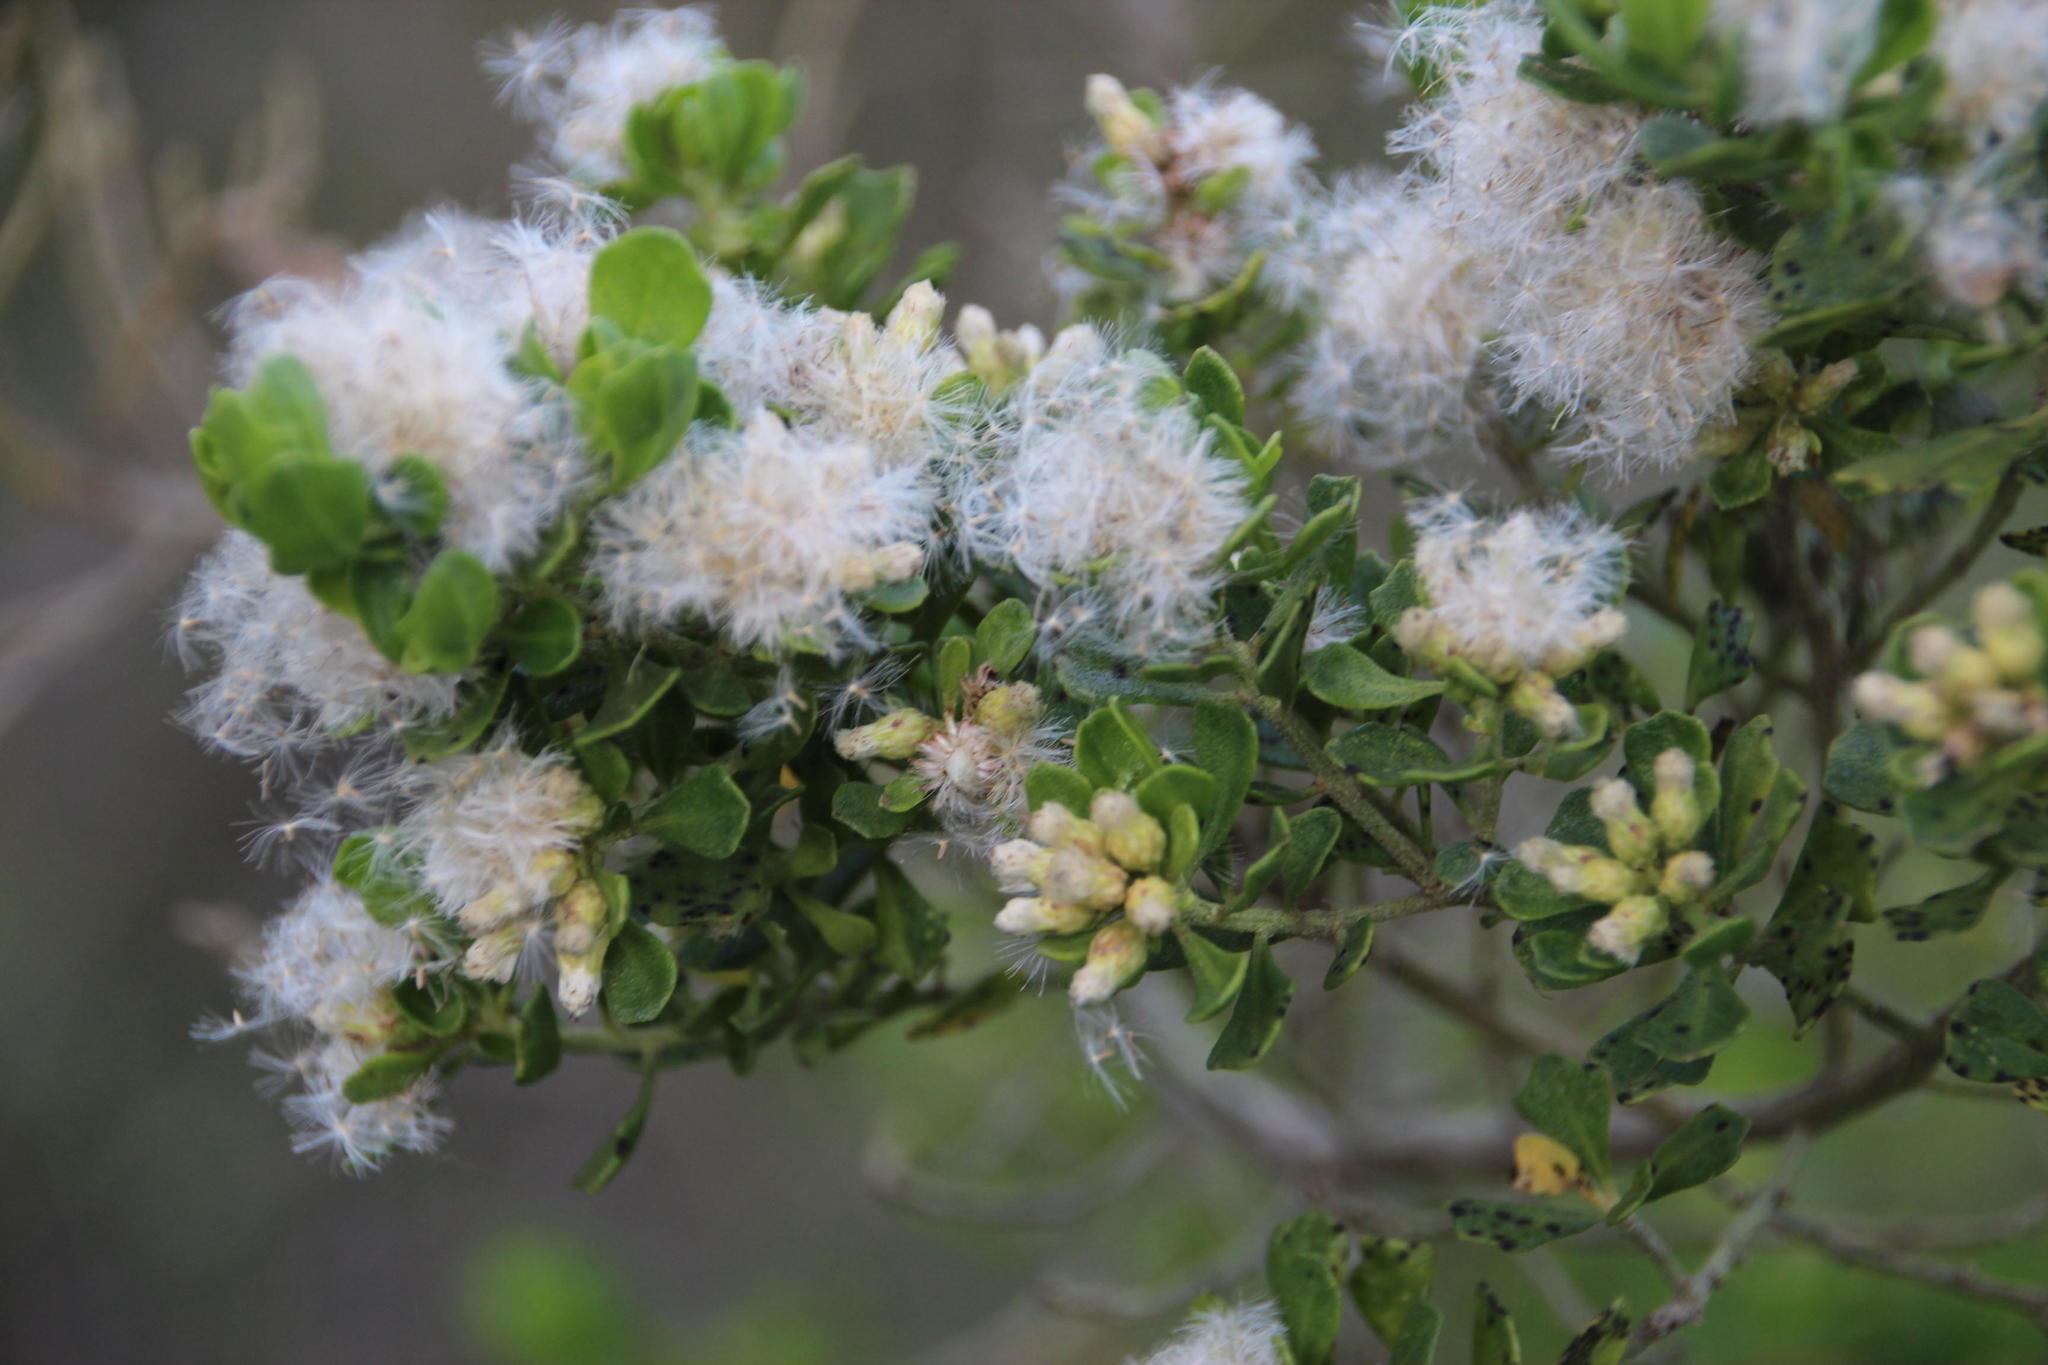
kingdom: Plantae
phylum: Tracheophyta
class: Magnoliopsida
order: Asterales
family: Asteraceae
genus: Baccharis
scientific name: Baccharis vernalis
